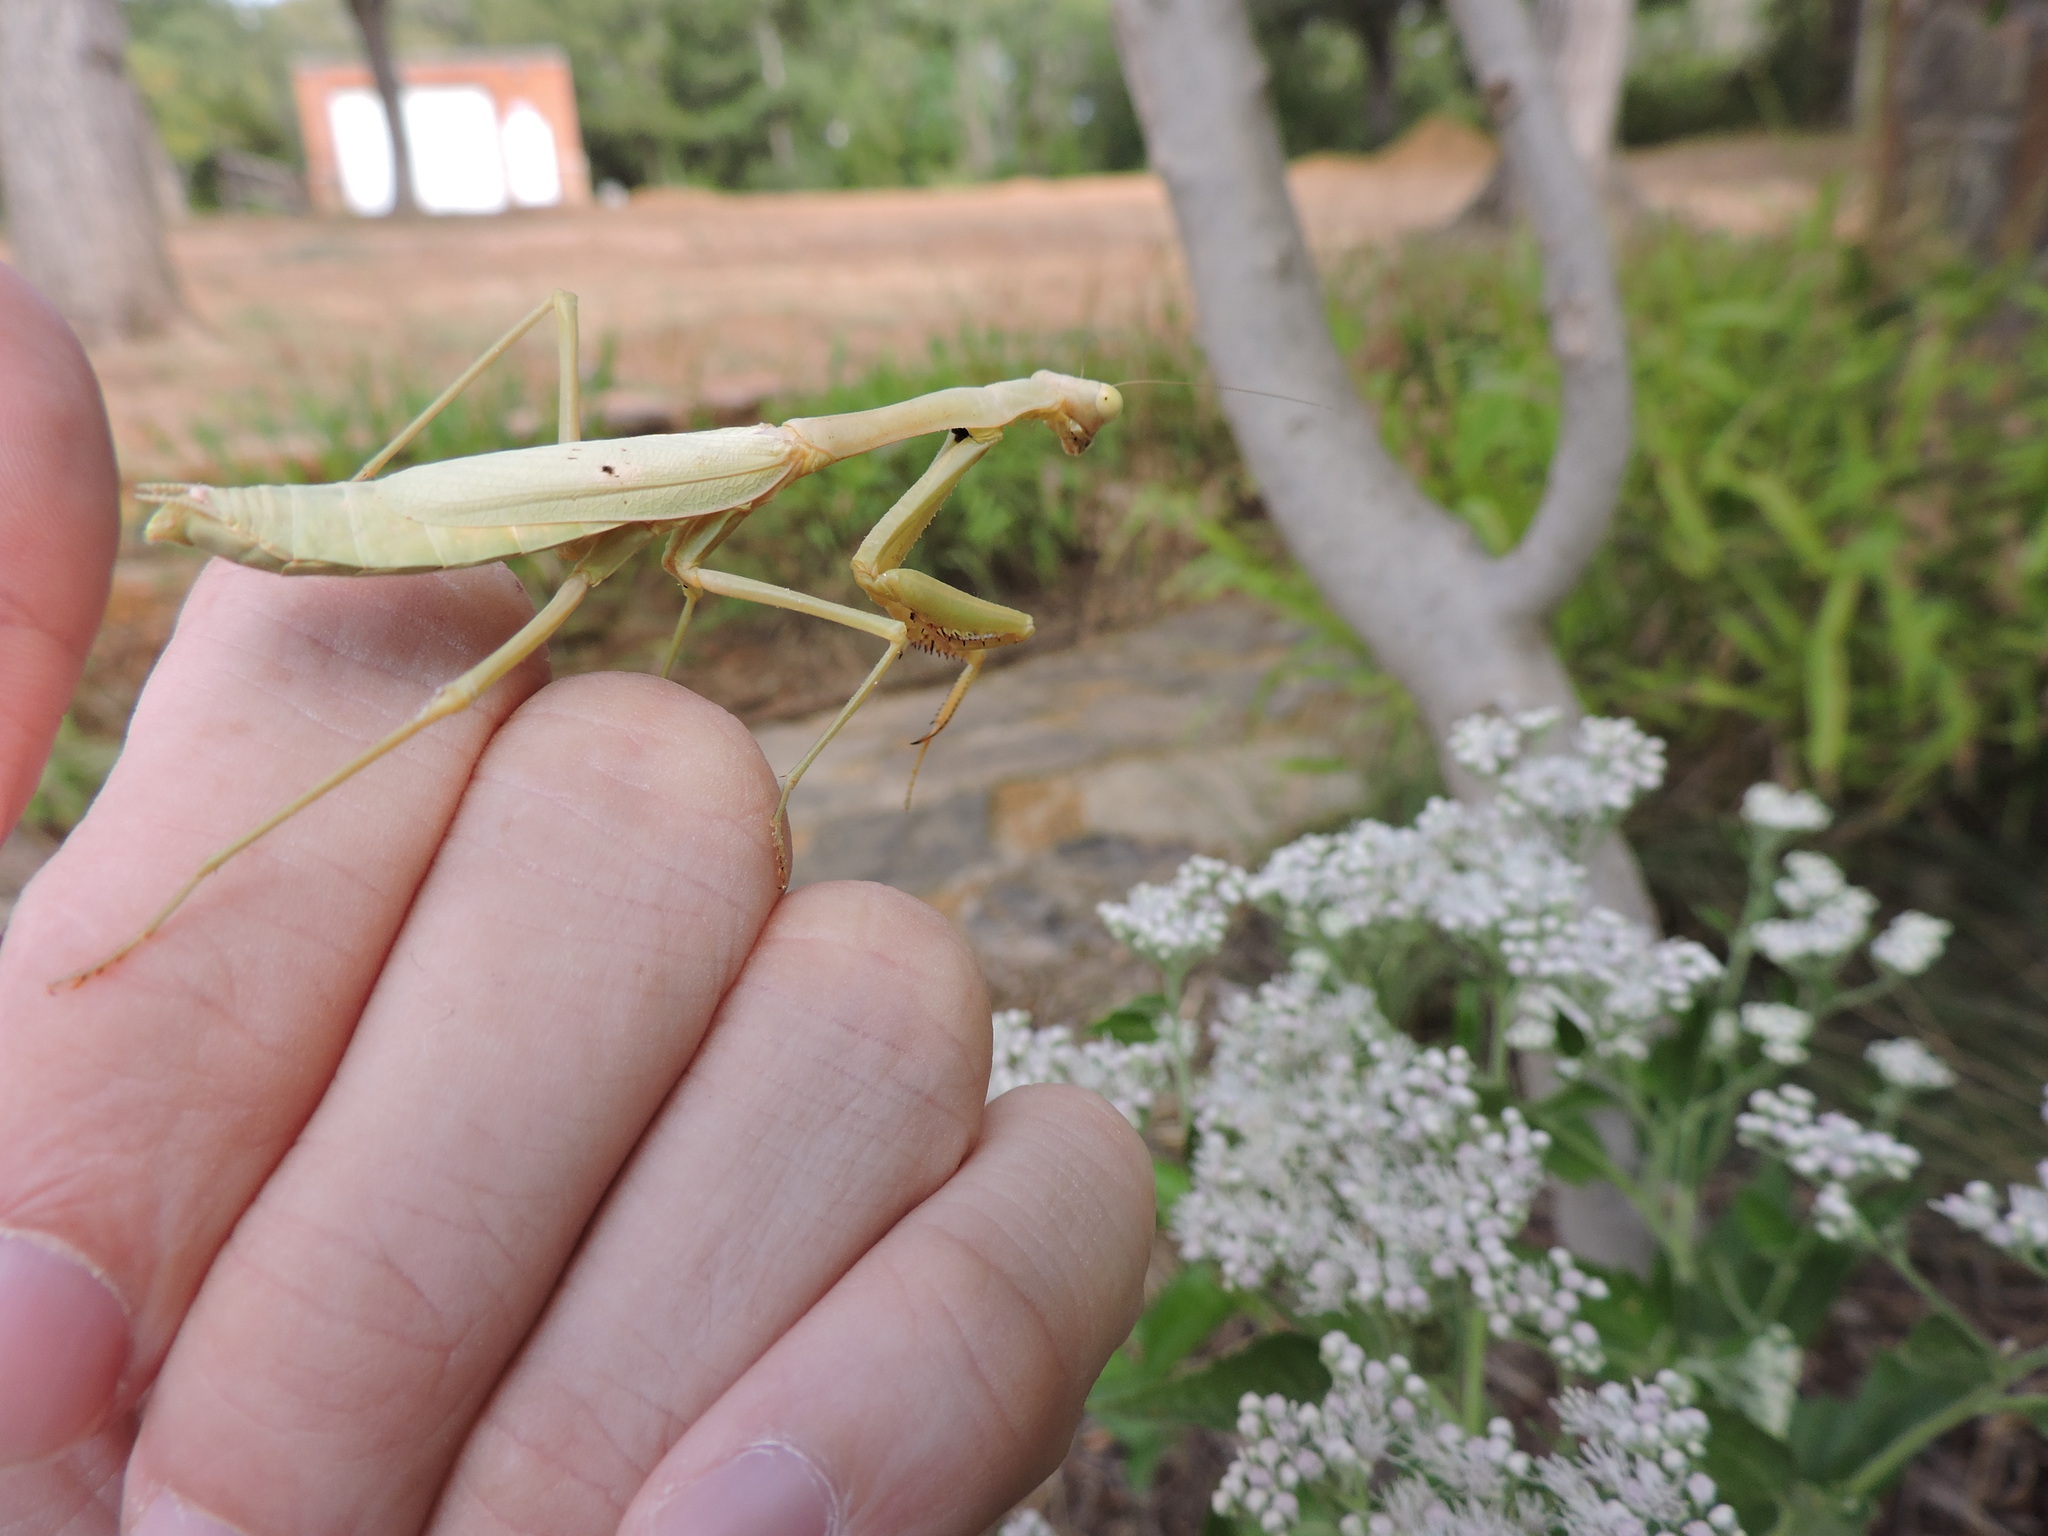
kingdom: Animalia
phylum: Arthropoda
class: Insecta
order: Mantodea
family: Mantidae
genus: Stagmomantis
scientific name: Stagmomantis carolina
